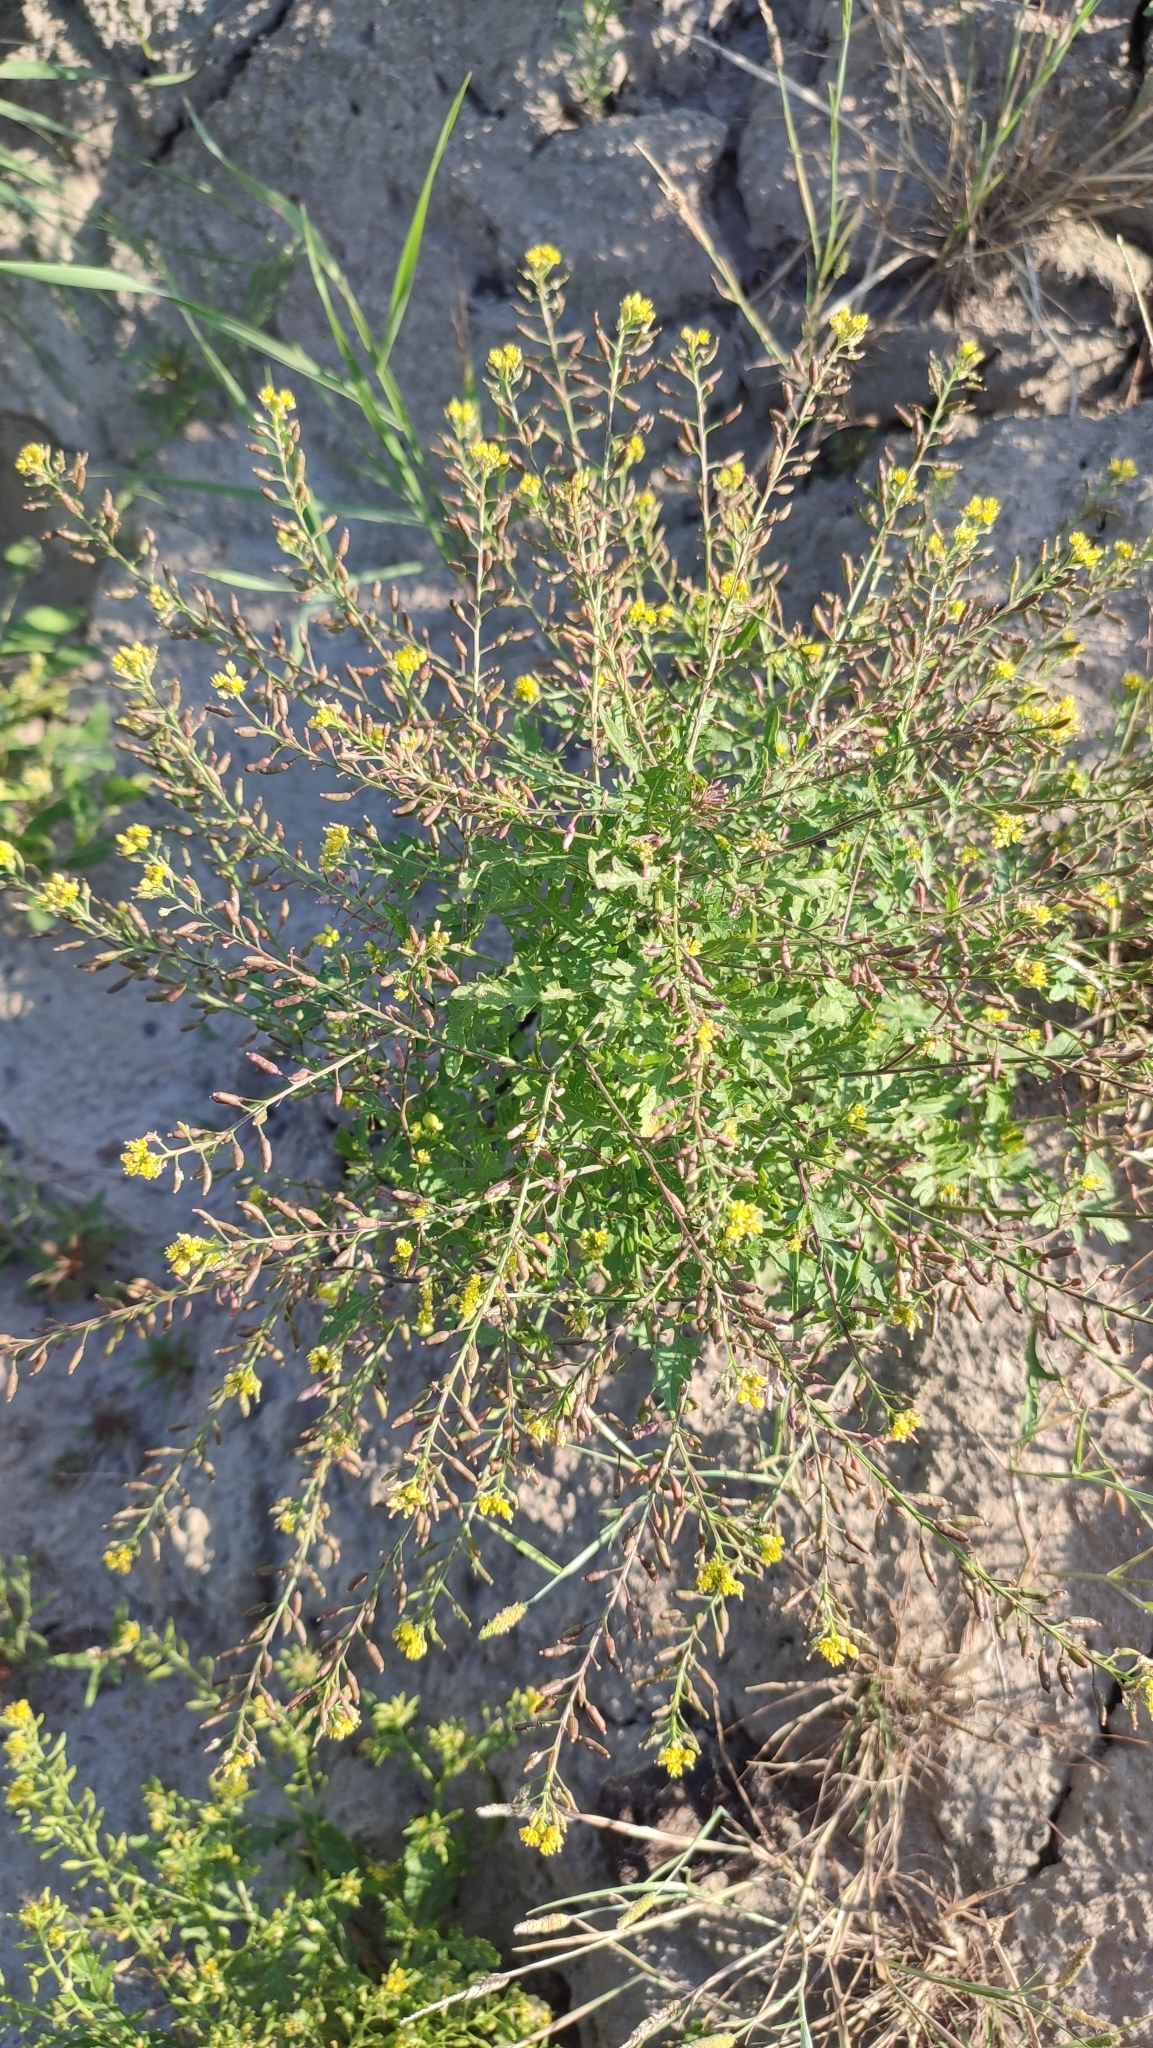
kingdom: Plantae
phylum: Tracheophyta
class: Magnoliopsida
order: Brassicales
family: Brassicaceae
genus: Rorippa
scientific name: Rorippa palustris
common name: Marsh yellow-cress
